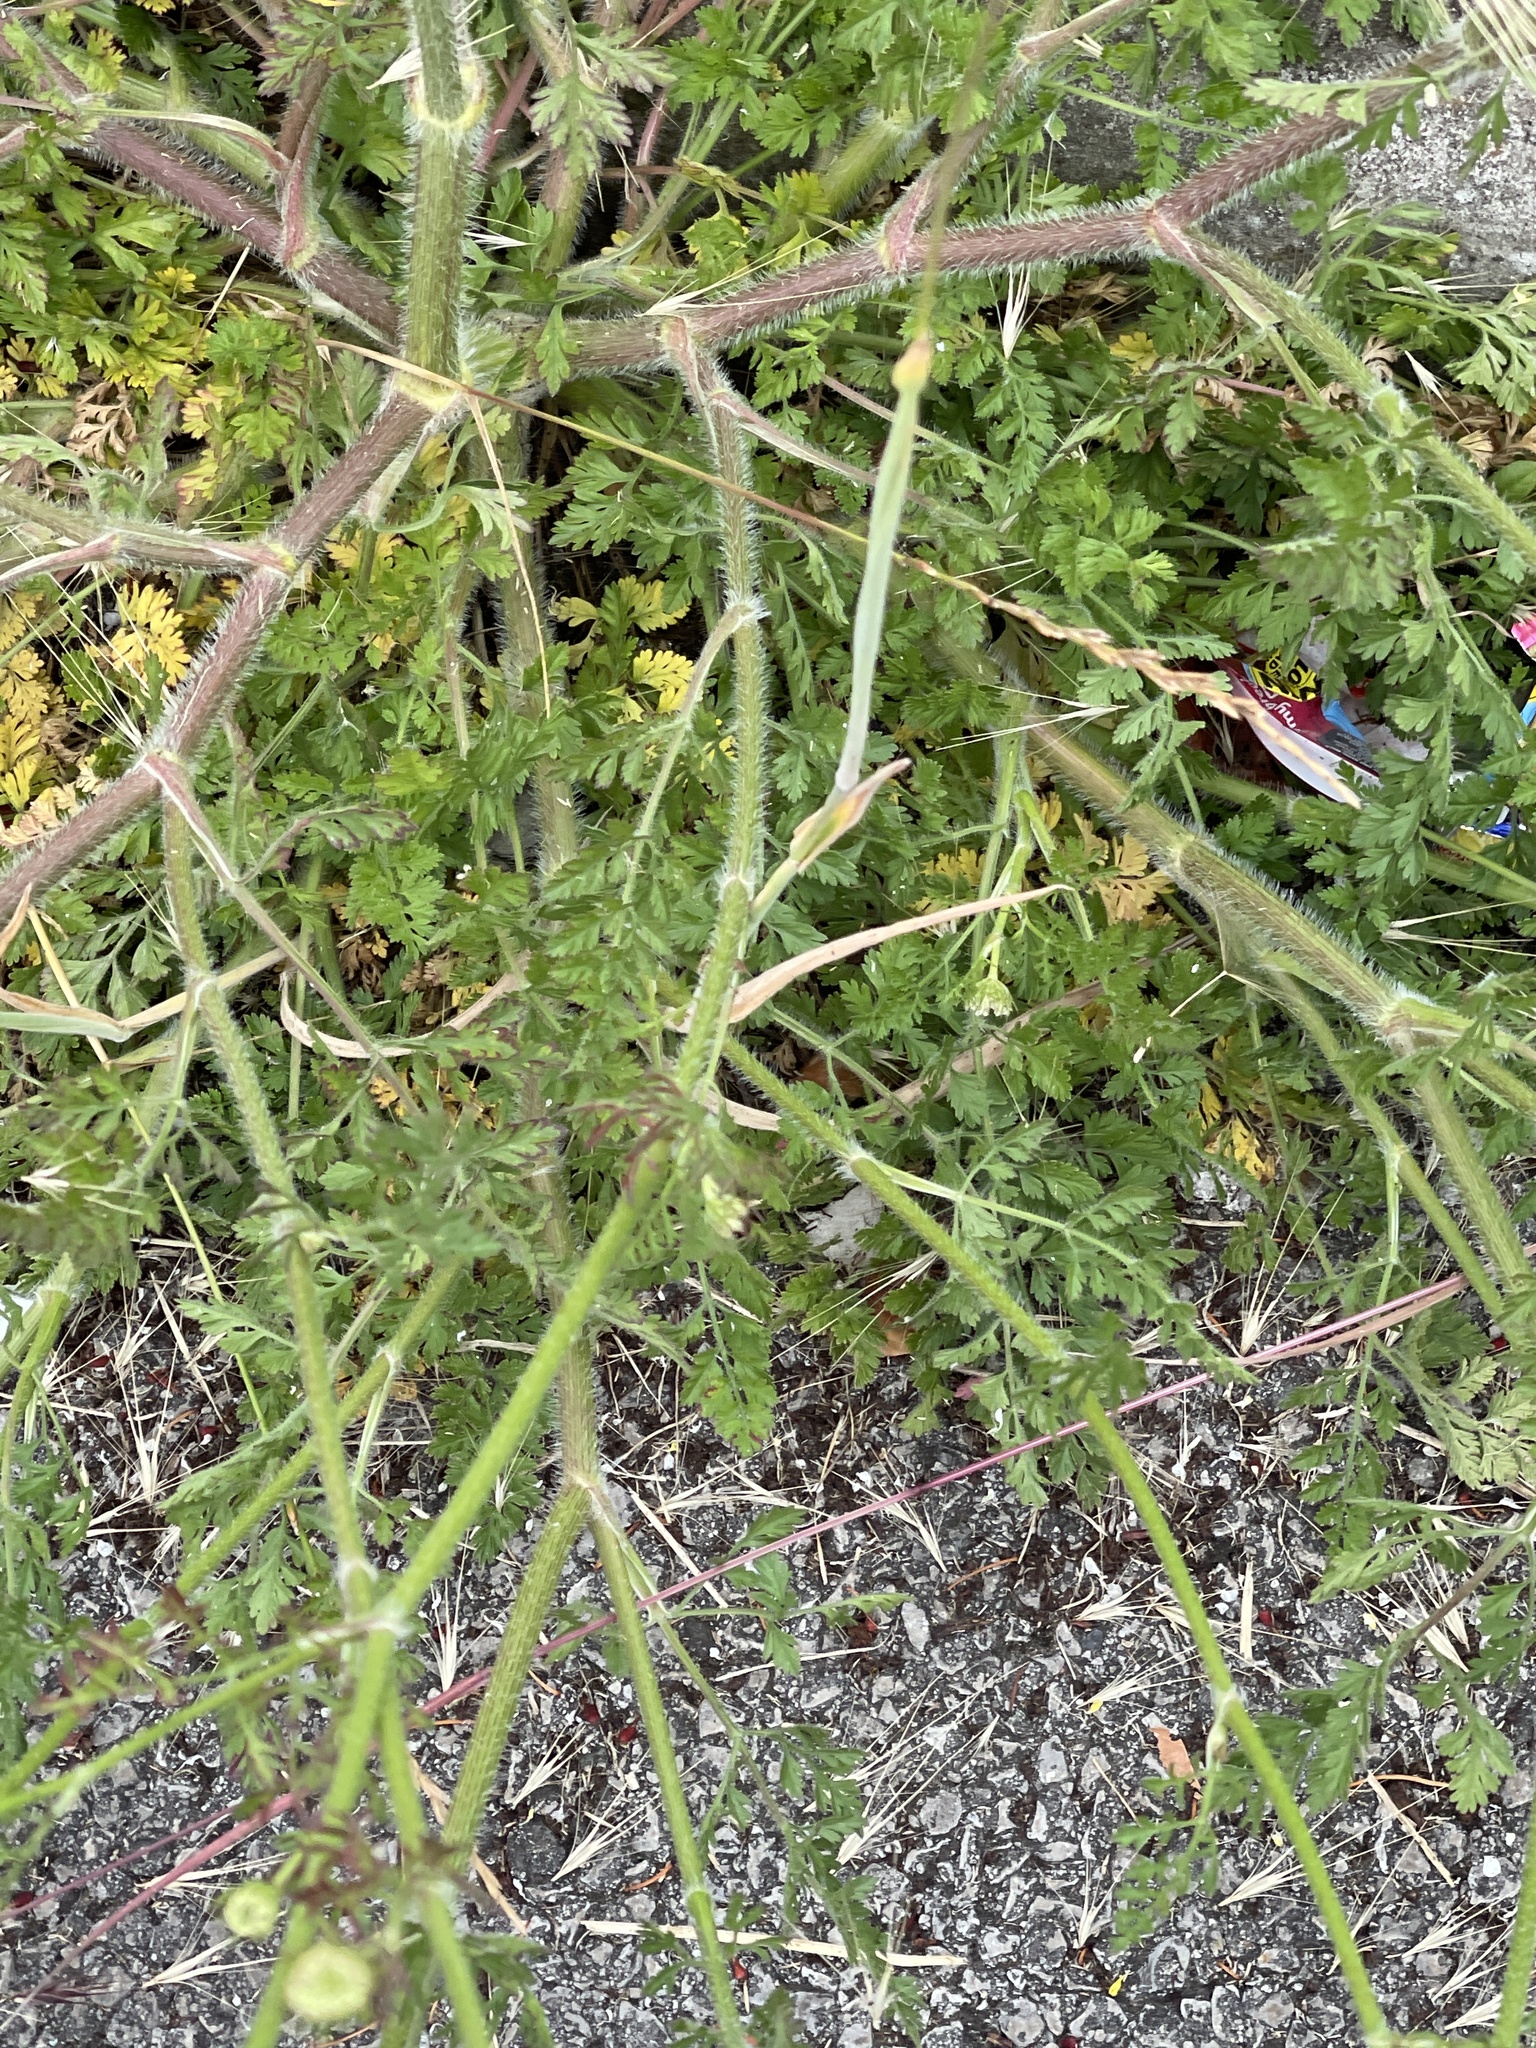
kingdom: Plantae
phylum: Tracheophyta
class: Magnoliopsida
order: Apiales
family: Apiaceae
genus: Daucus
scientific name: Daucus carota
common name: Wild carrot
